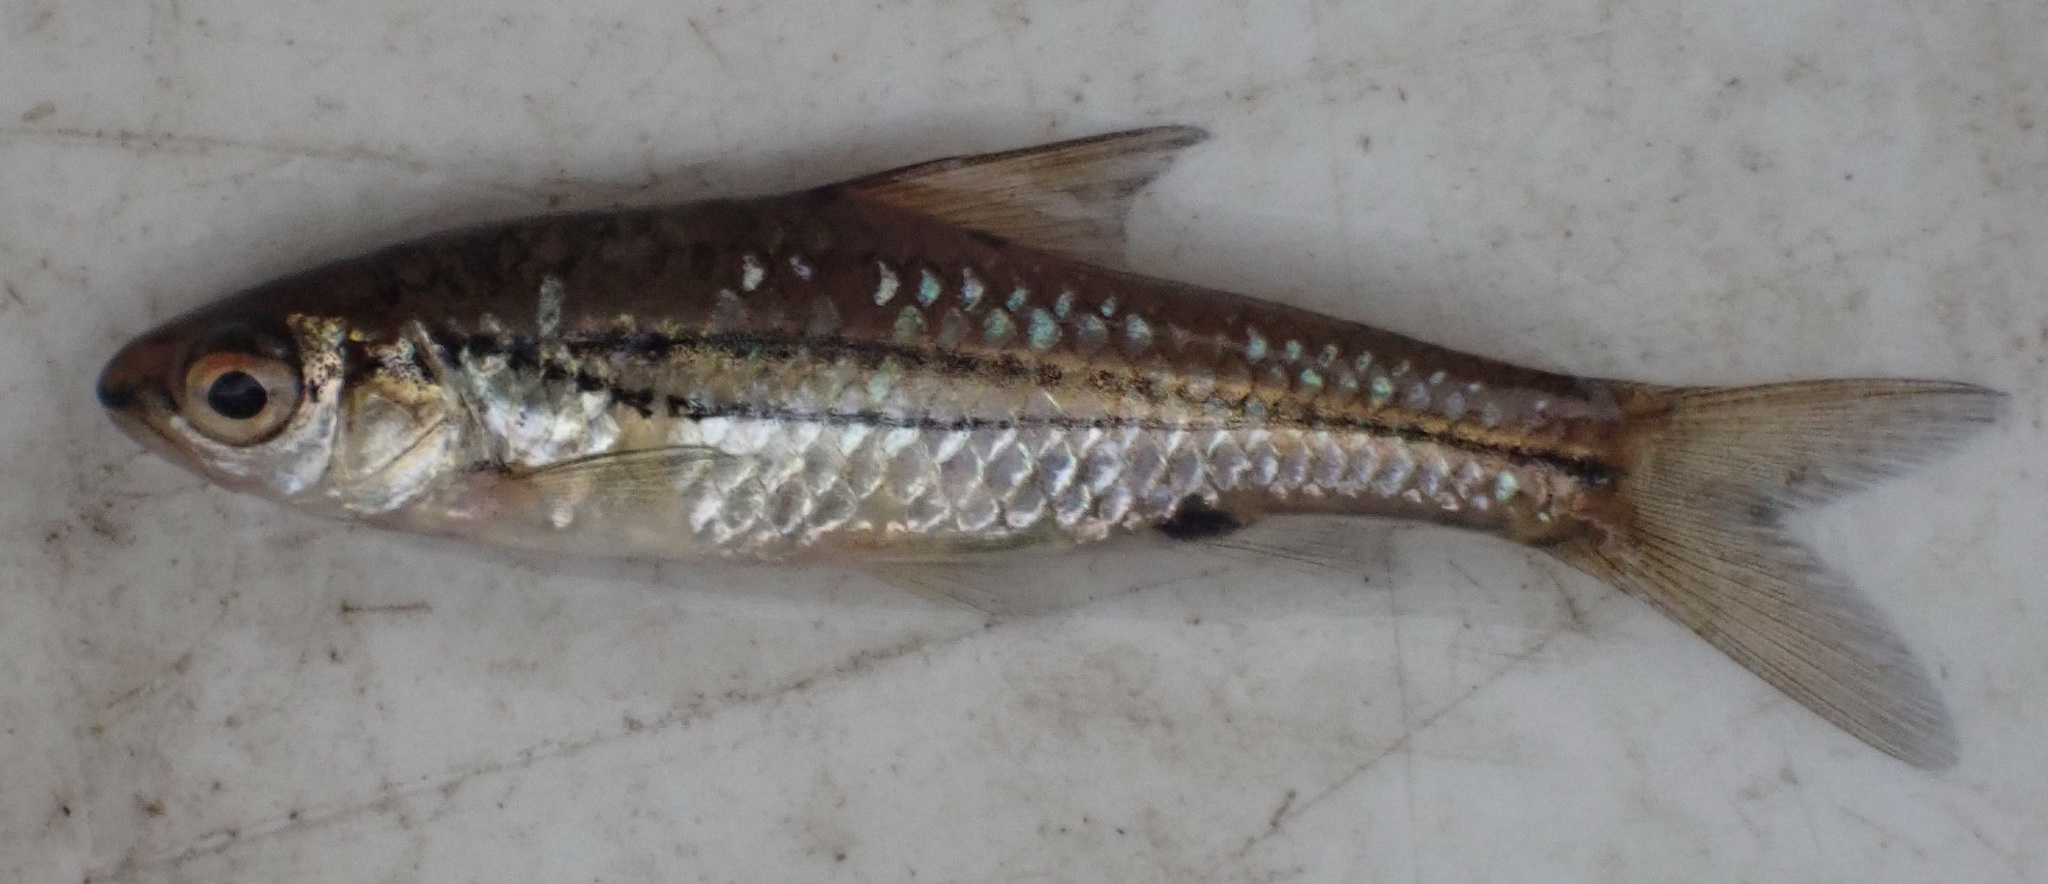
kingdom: Animalia
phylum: Chordata
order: Cypriniformes
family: Cyprinidae
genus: Enteromius
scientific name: Enteromius bifrenatus
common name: Hyphen barb
